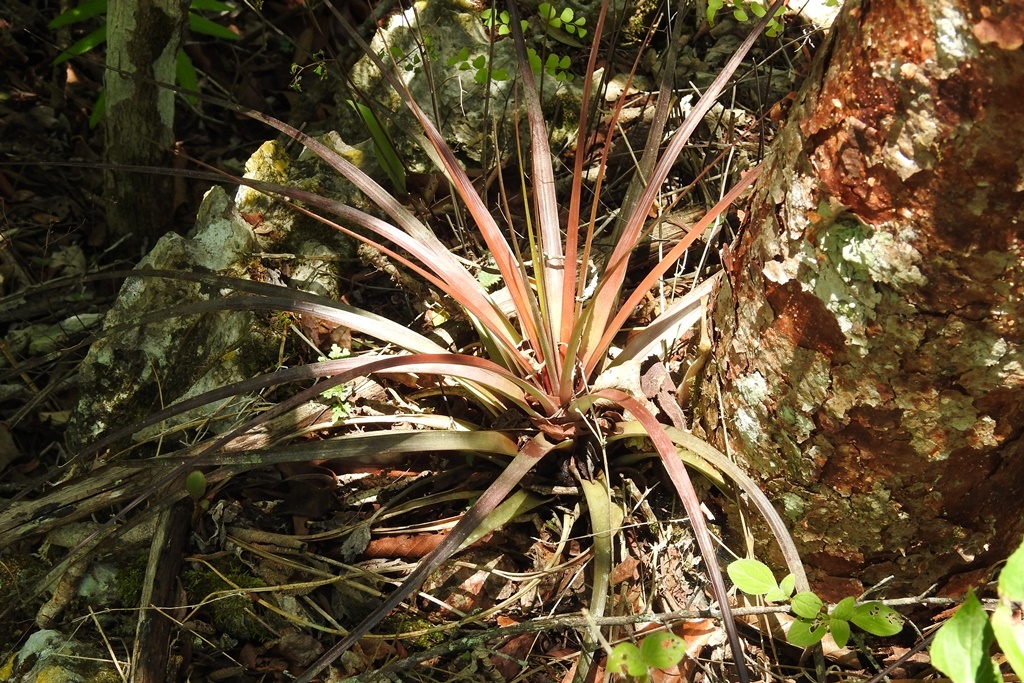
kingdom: Plantae
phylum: Tracheophyta
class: Liliopsida
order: Poales
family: Bromeliaceae
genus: Tillandsia
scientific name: Tillandsia tricolor
